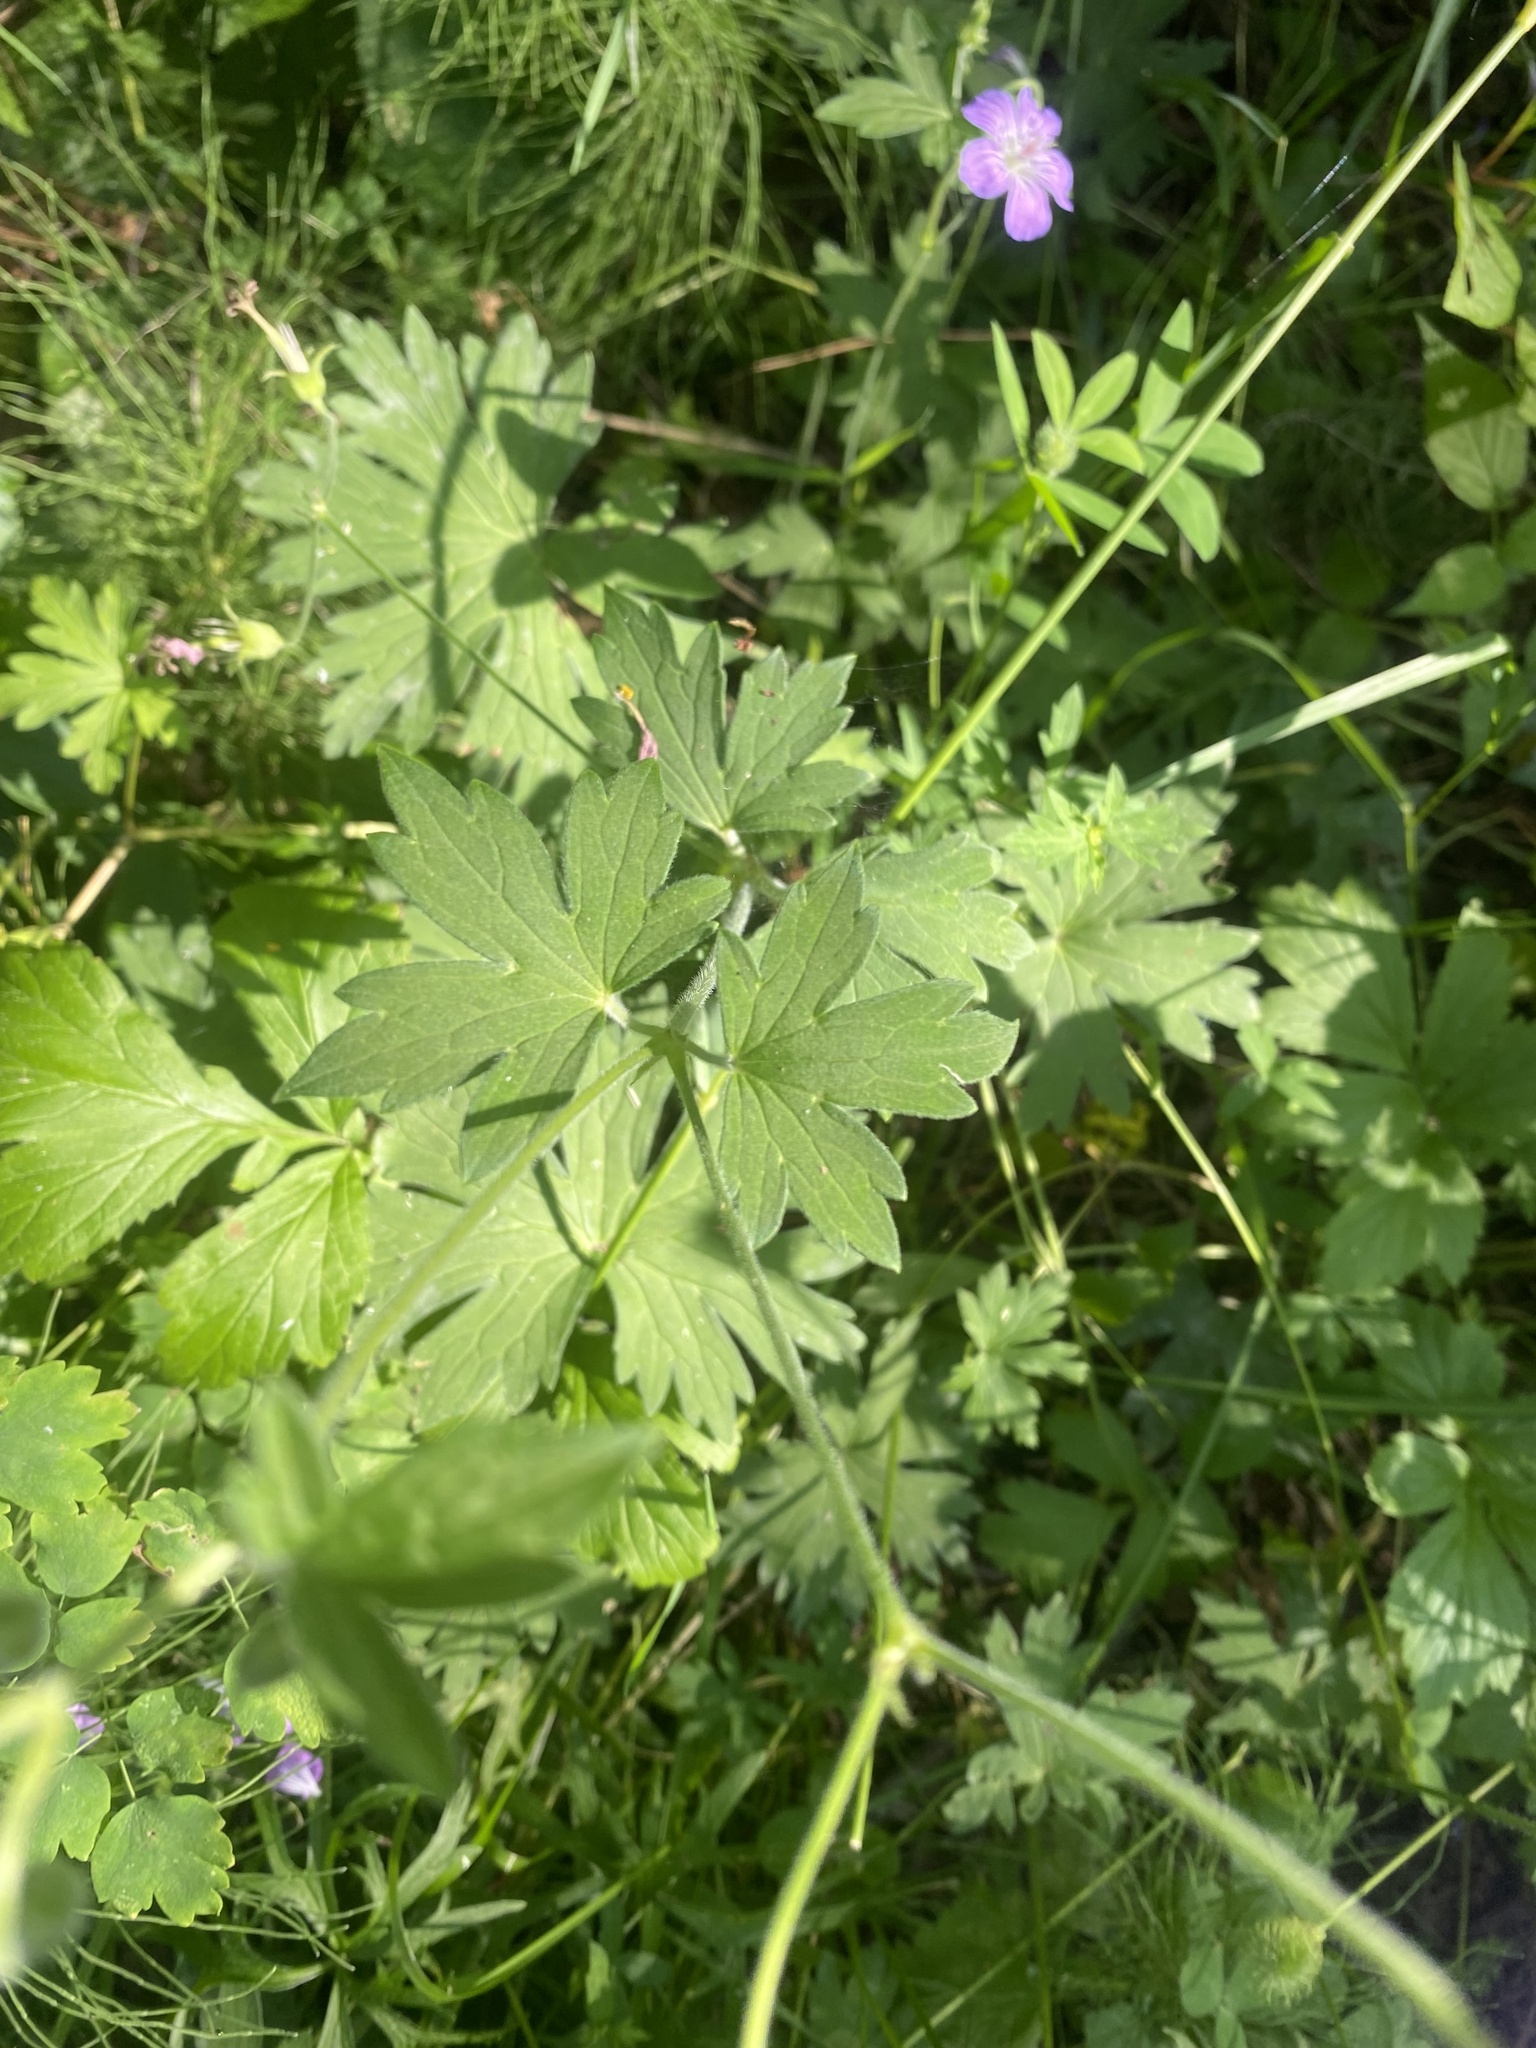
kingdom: Plantae
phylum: Tracheophyta
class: Magnoliopsida
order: Geraniales
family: Geraniaceae
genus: Geranium
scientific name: Geranium wlassovianum
